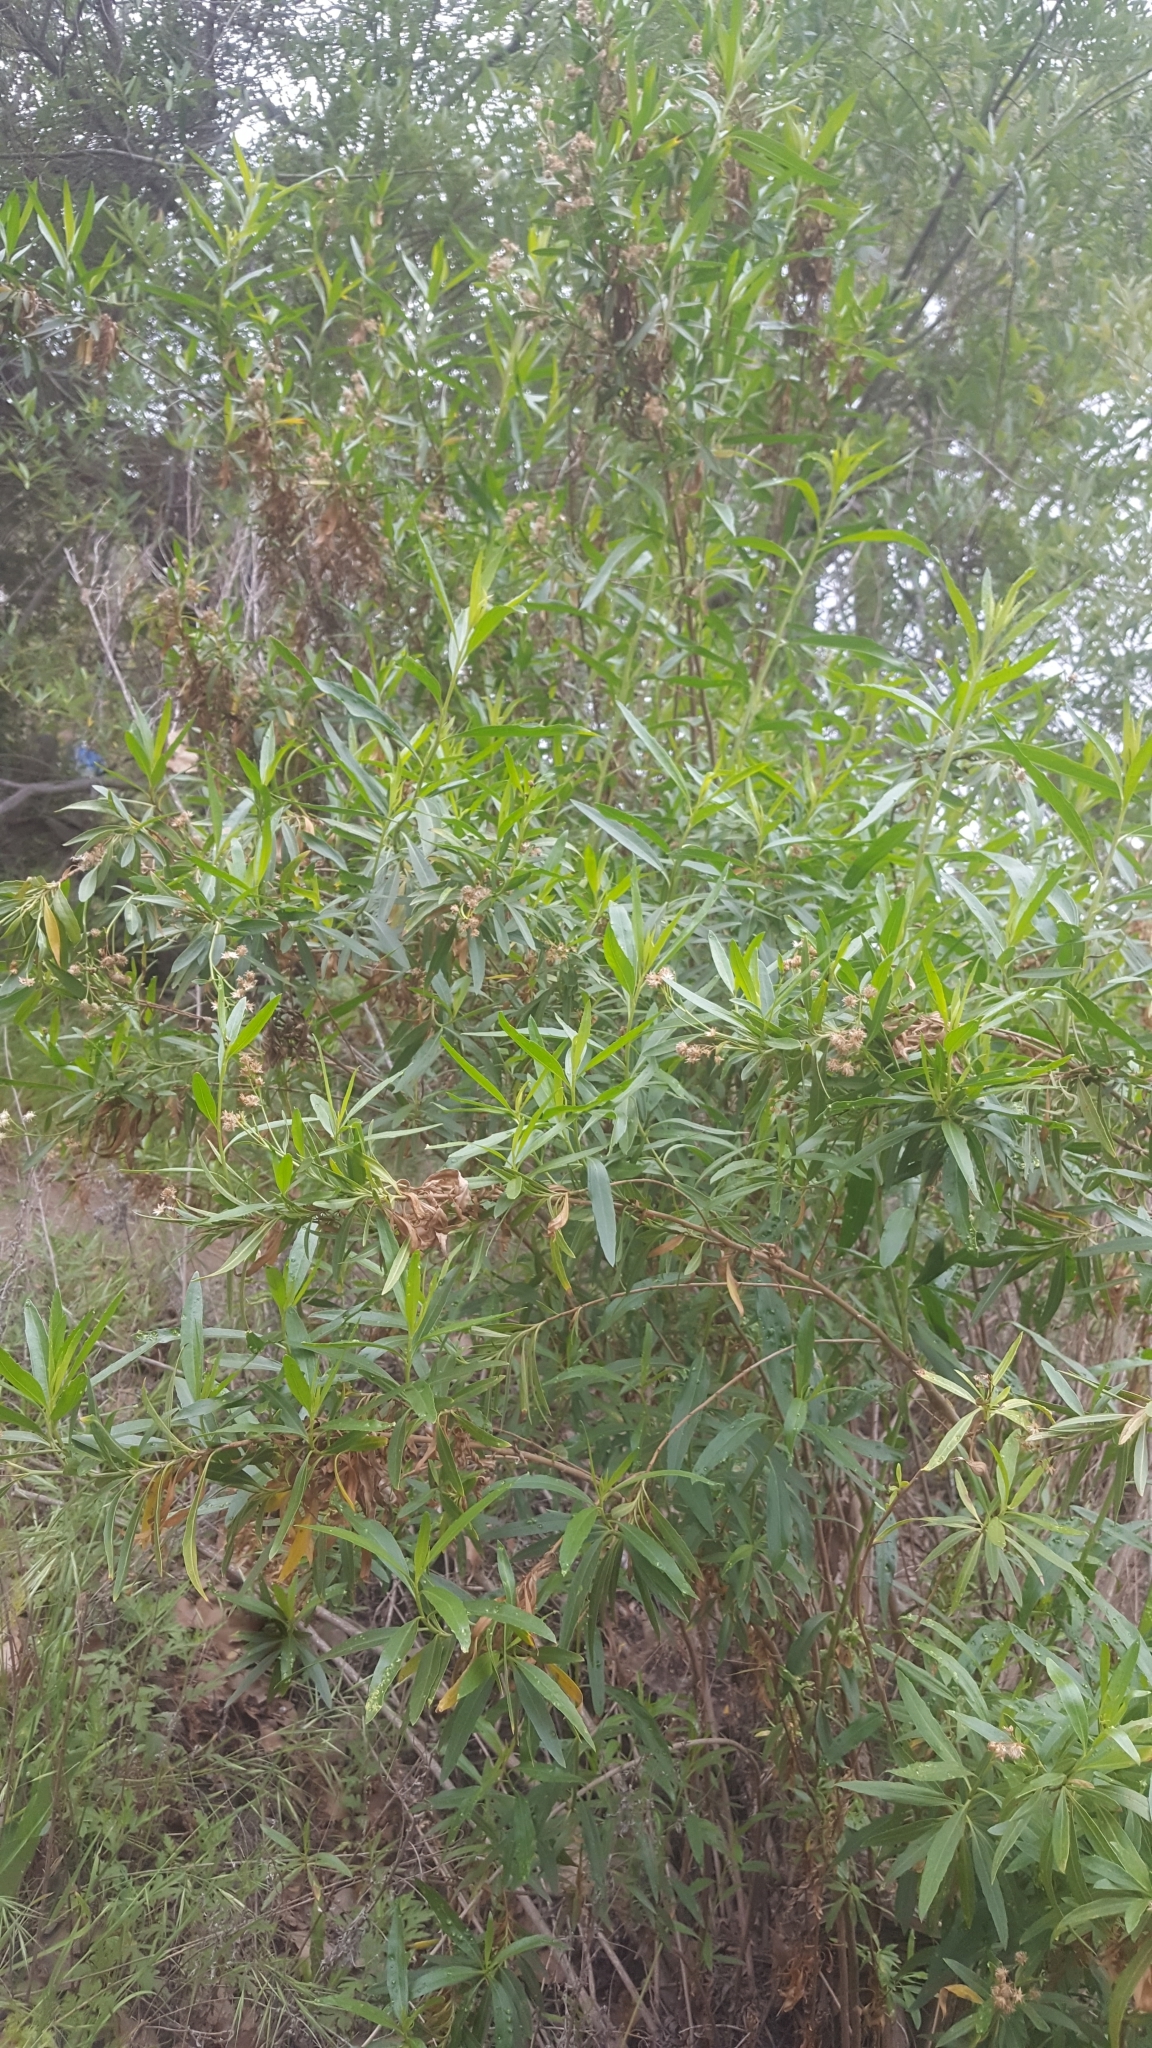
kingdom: Plantae
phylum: Tracheophyta
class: Magnoliopsida
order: Asterales
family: Asteraceae
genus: Baccharis
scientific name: Baccharis salicifolia
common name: Sticky baccharis
